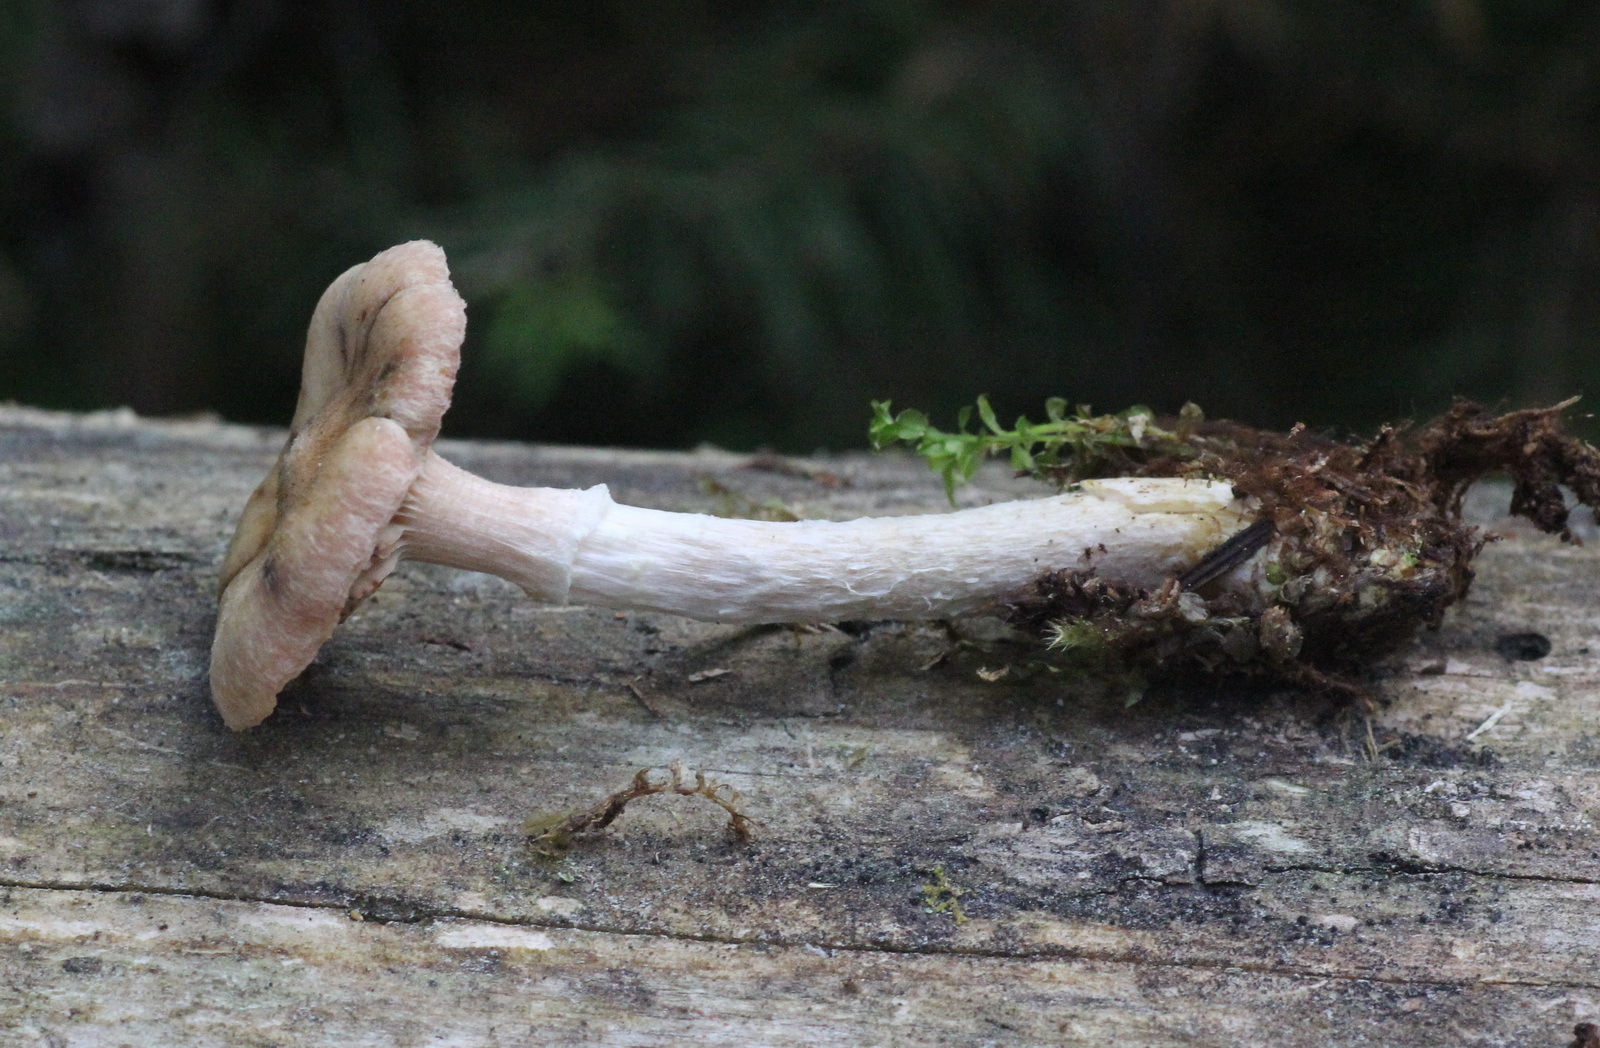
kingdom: Fungi
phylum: Basidiomycota
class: Agaricomycetes
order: Agaricales
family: Physalacriaceae
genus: Armillaria
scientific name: Armillaria cepistipes
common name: Mullet honey fungus
